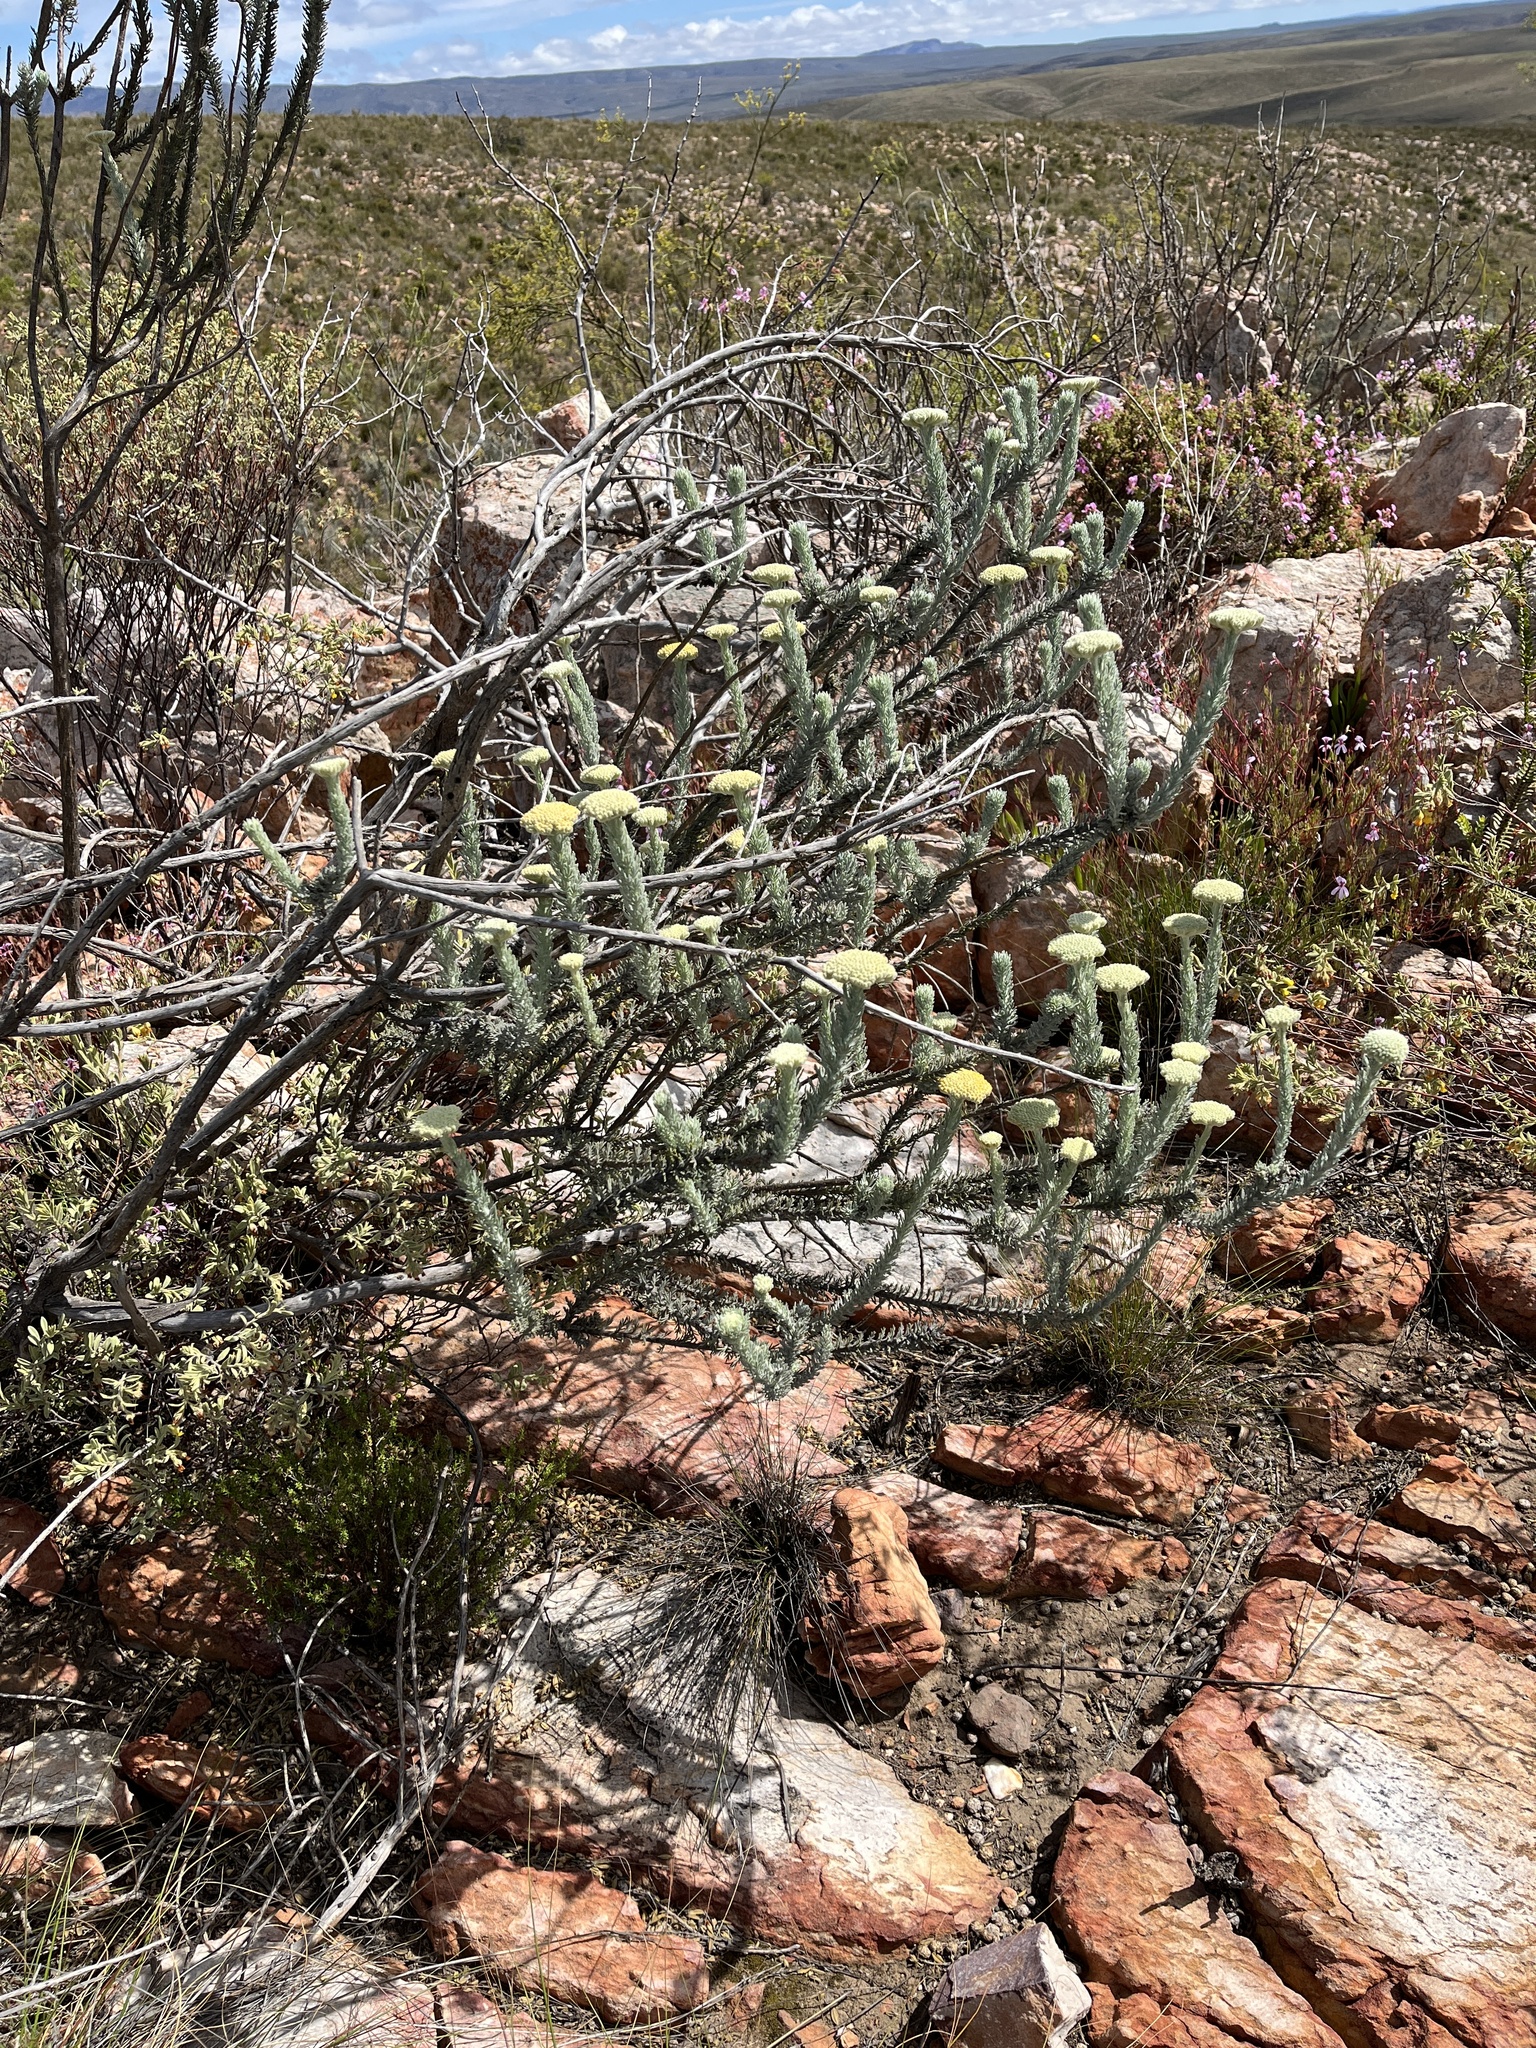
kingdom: Plantae
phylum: Tracheophyta
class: Magnoliopsida
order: Asterales
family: Asteraceae
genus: Athanasia
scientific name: Athanasia pinnata
